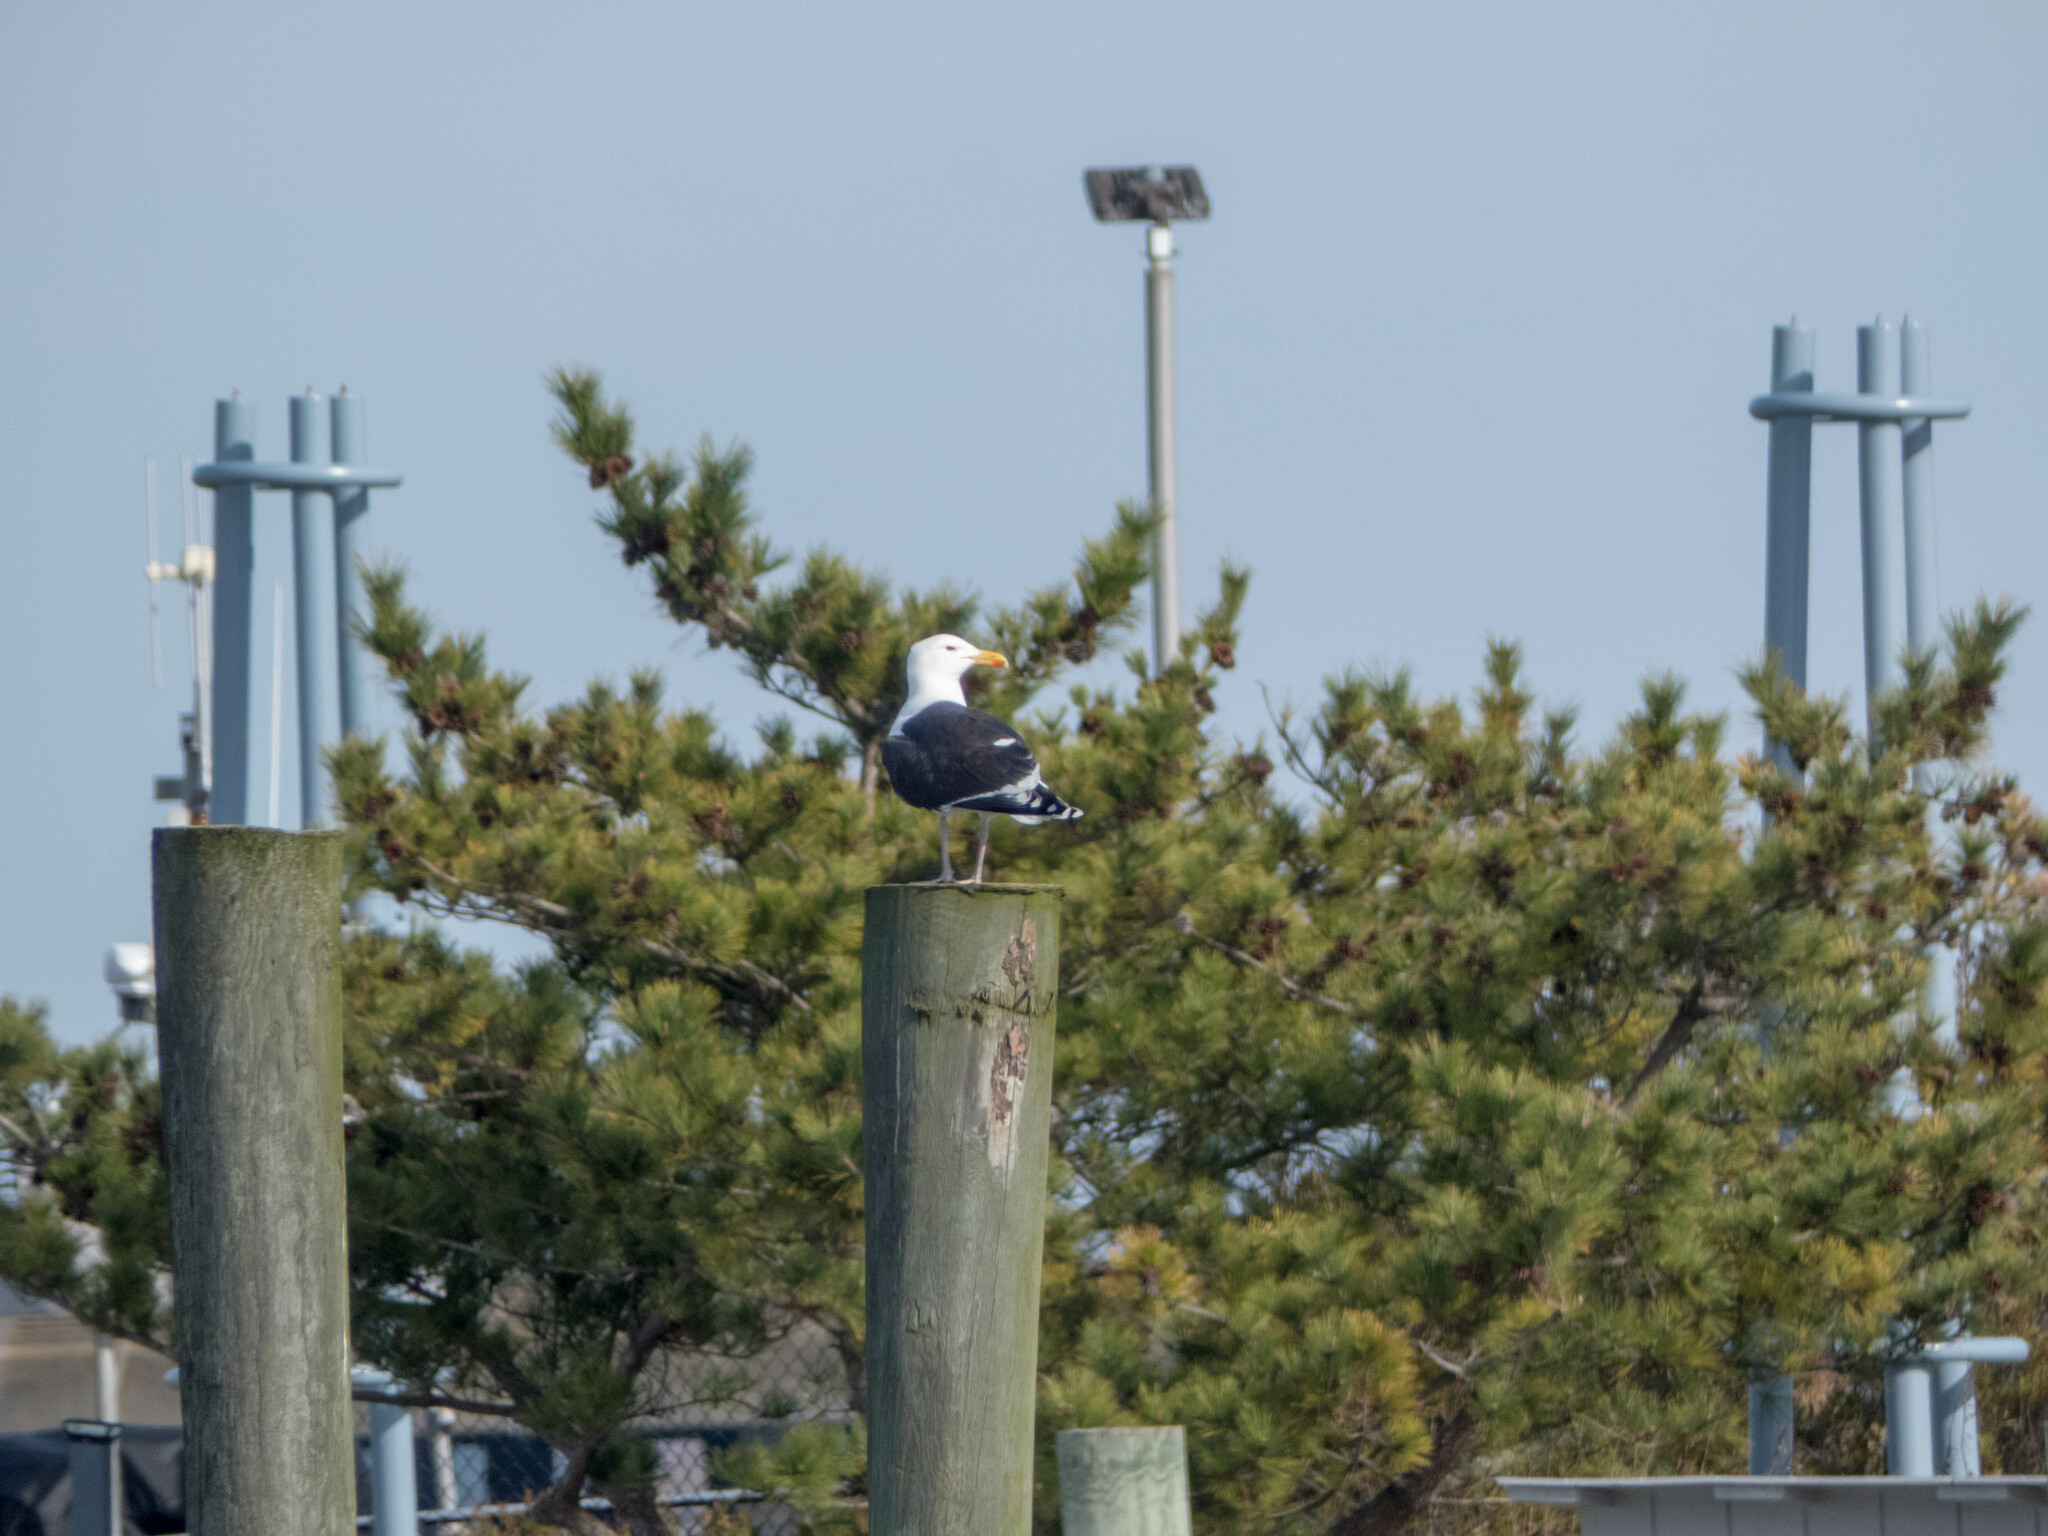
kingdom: Animalia
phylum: Chordata
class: Aves
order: Charadriiformes
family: Laridae
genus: Larus
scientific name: Larus marinus
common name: Great black-backed gull
